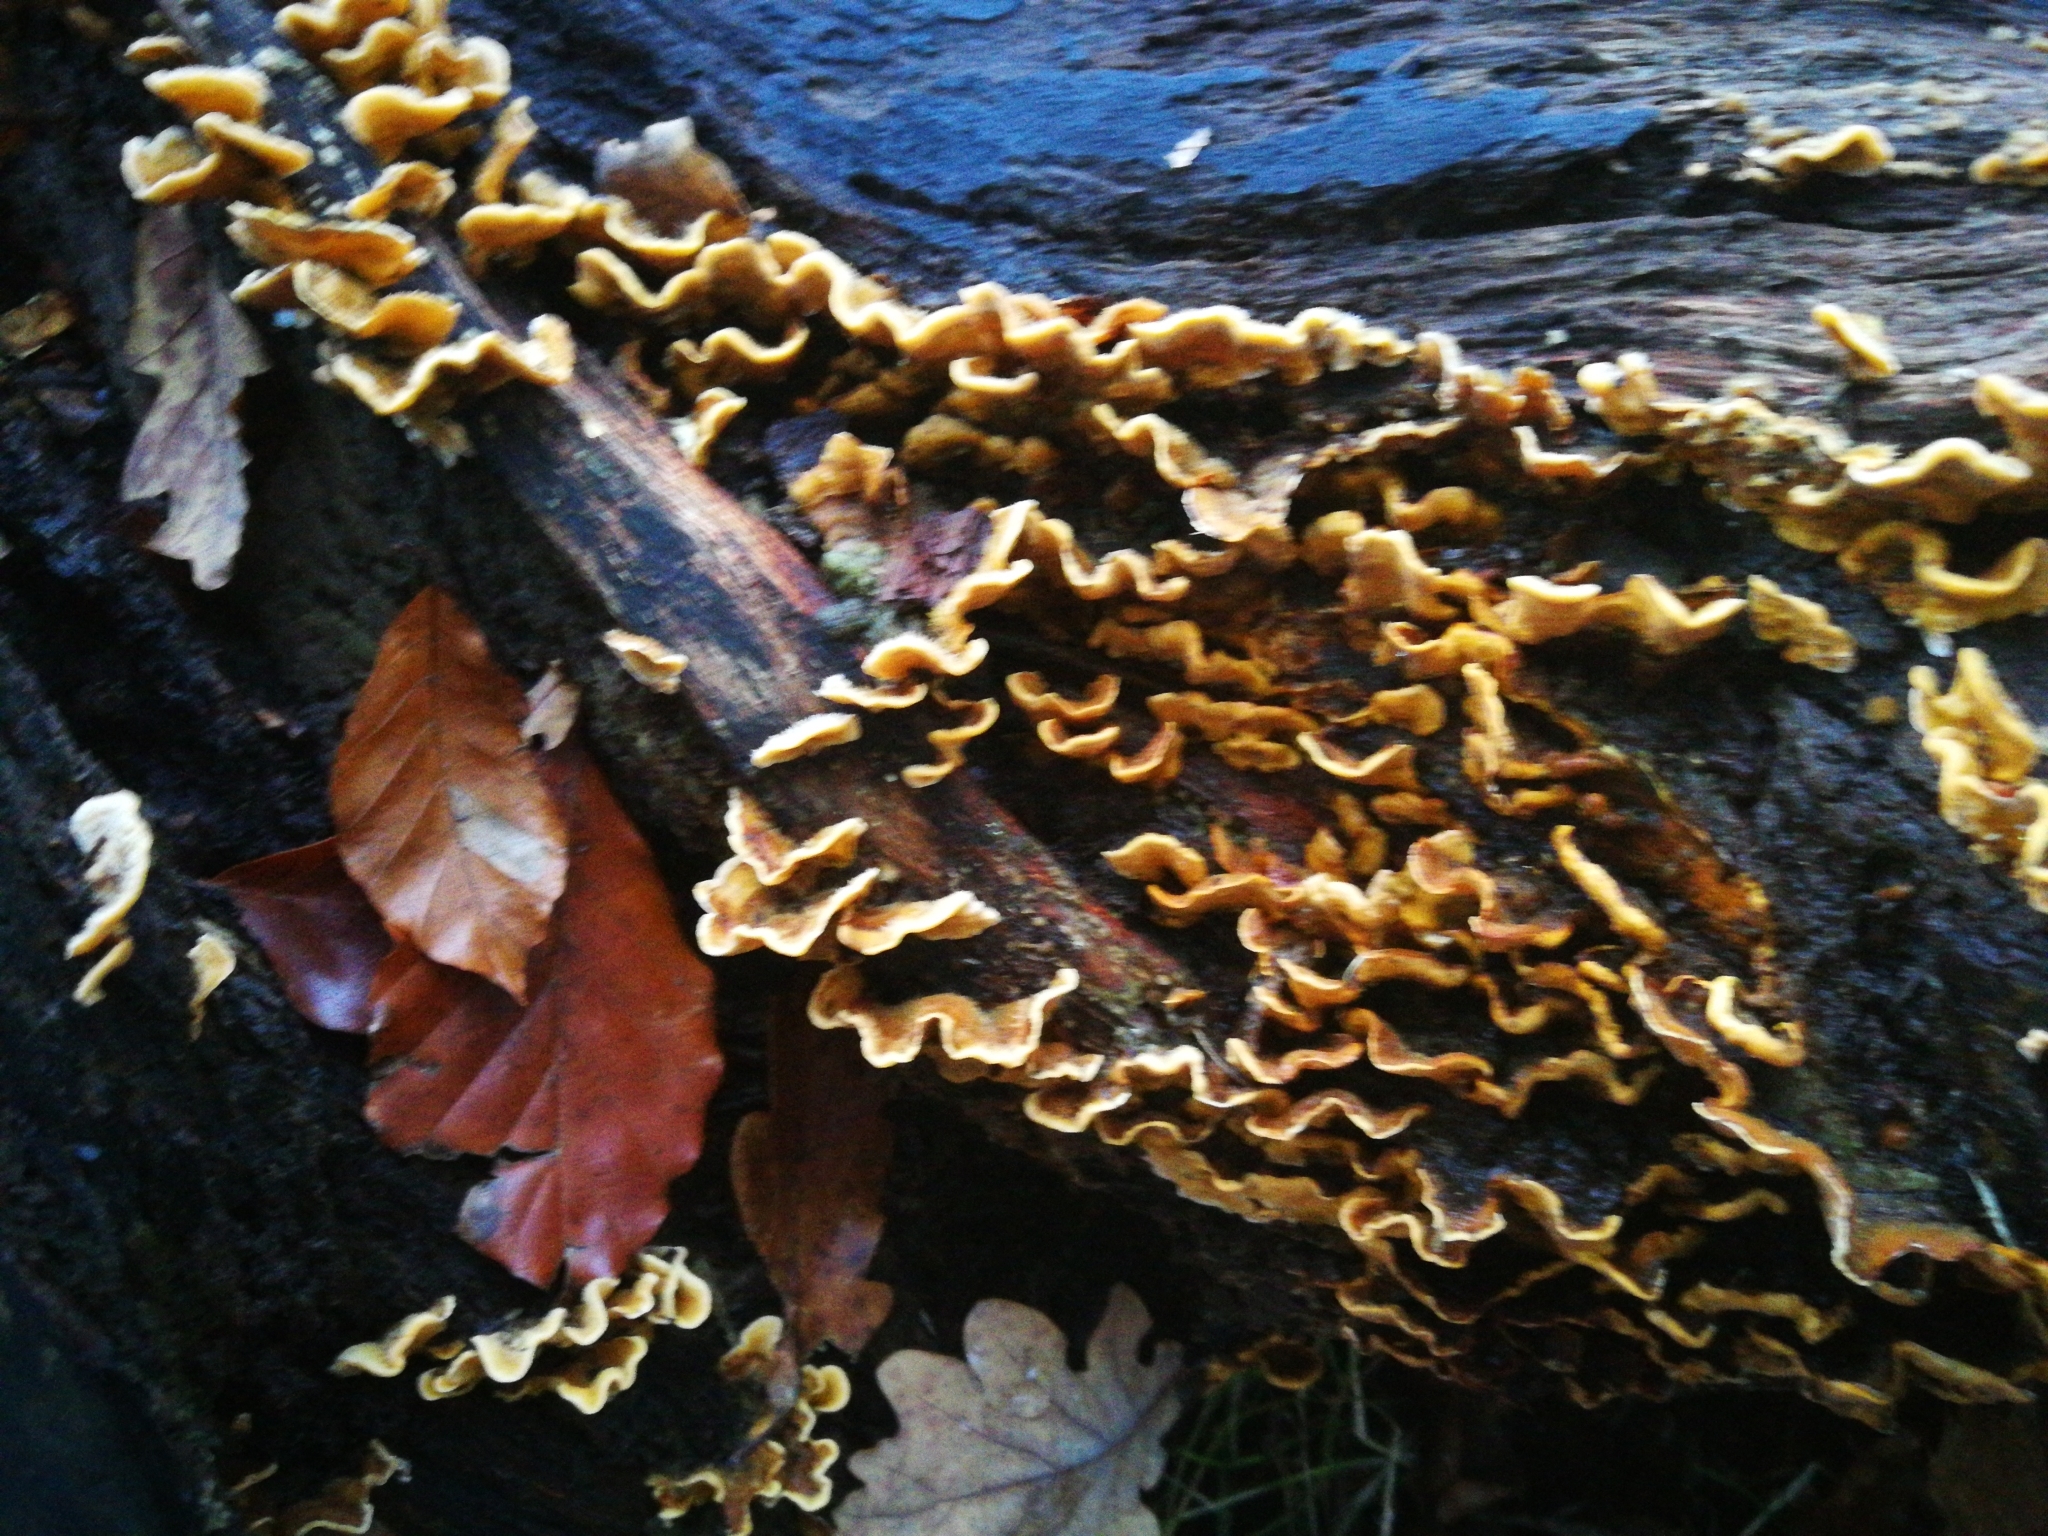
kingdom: Fungi
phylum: Basidiomycota
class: Agaricomycetes
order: Russulales
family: Stereaceae
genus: Stereum
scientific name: Stereum hirsutum
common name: Hairy curtain crust
